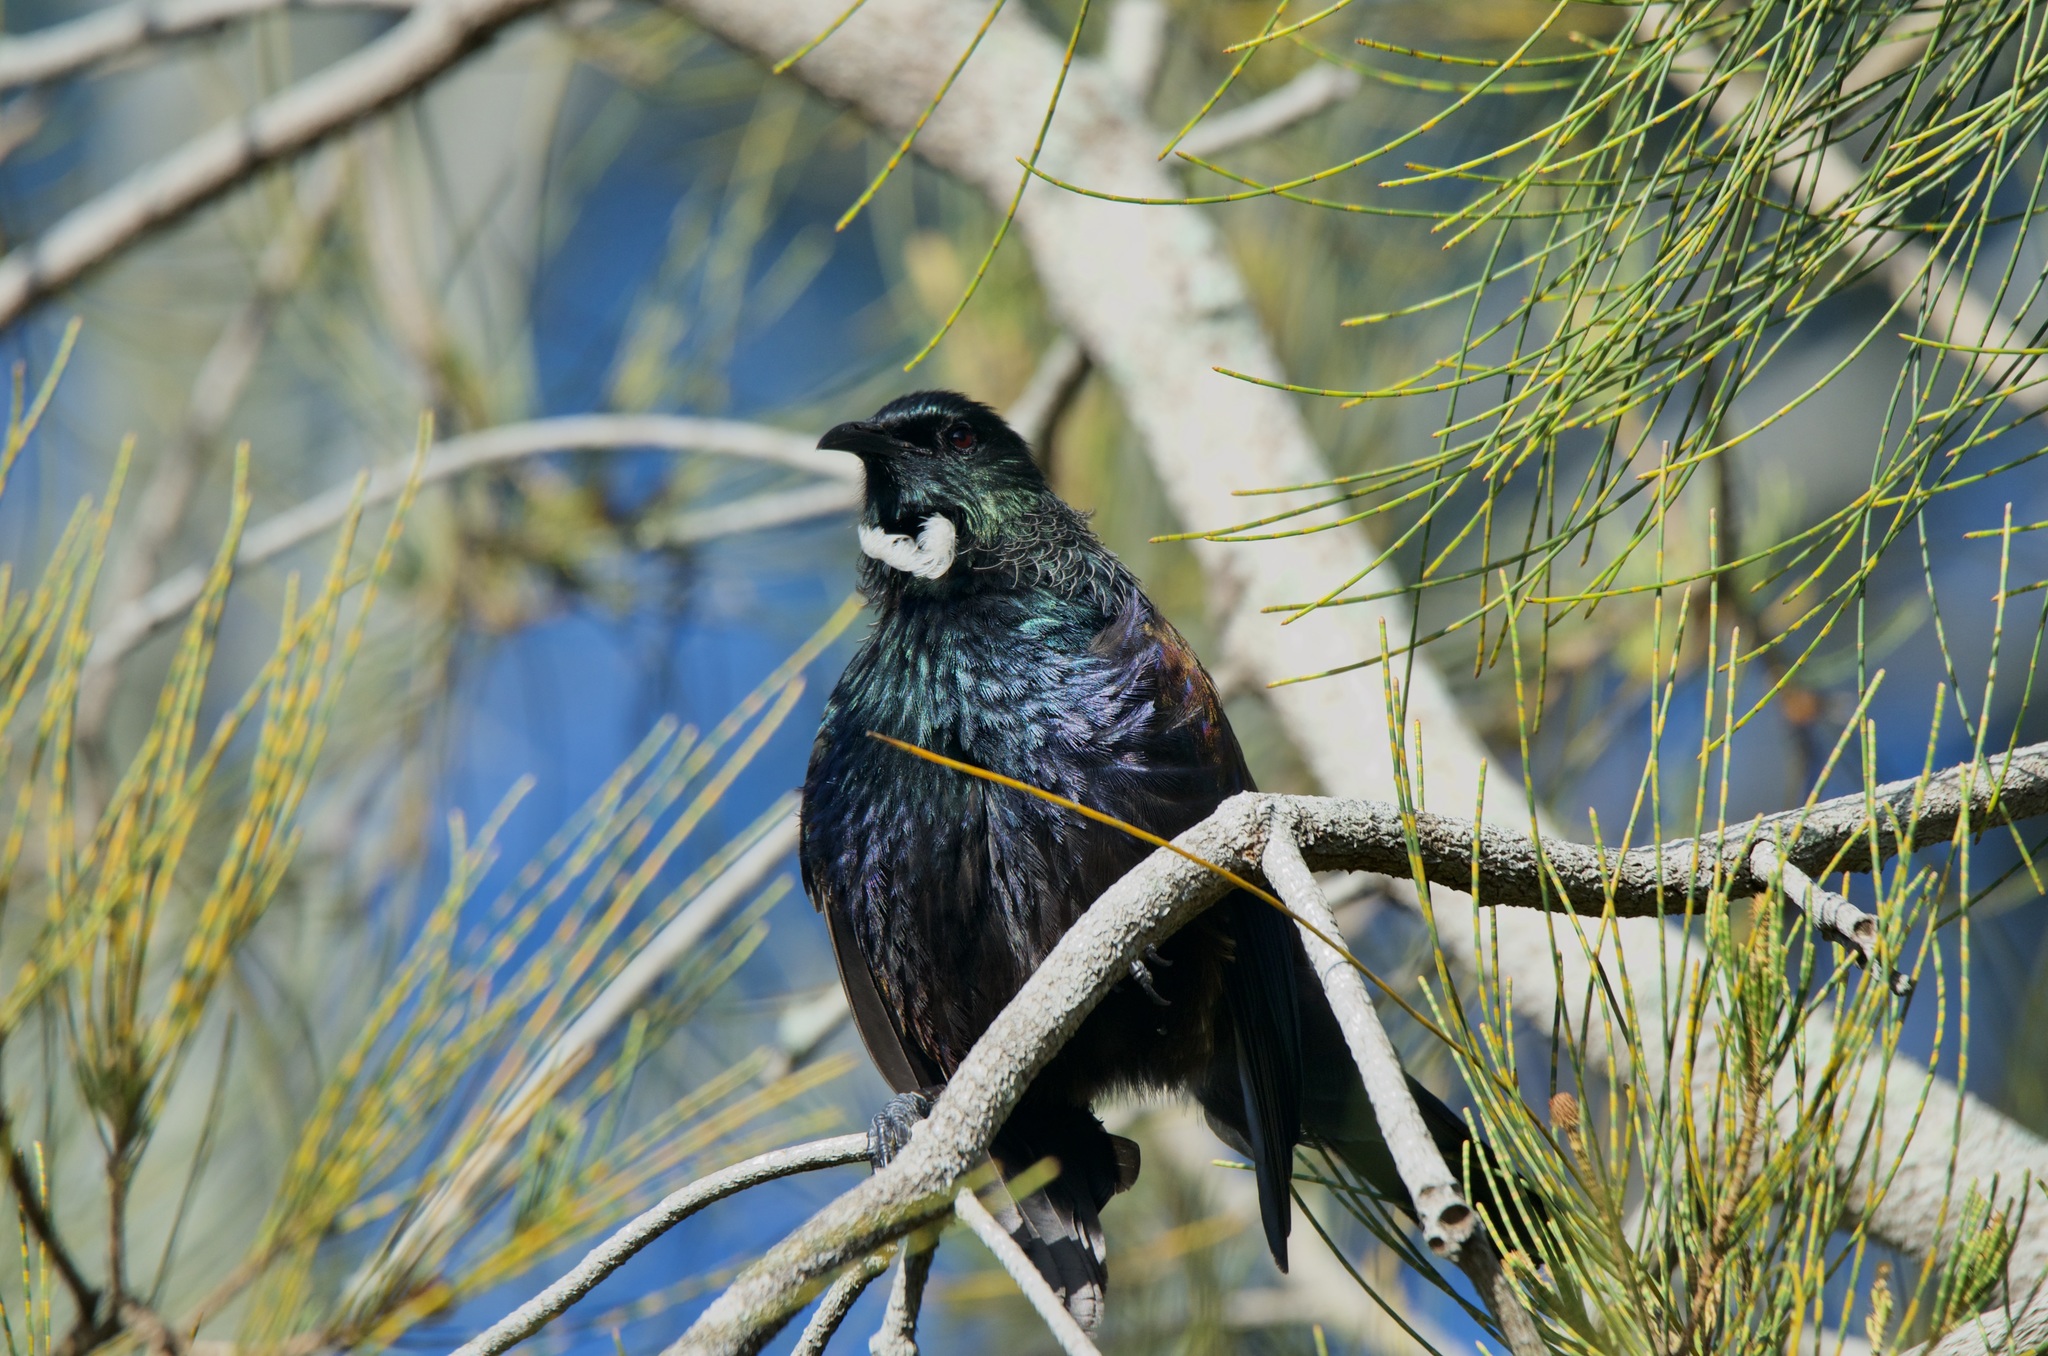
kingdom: Animalia
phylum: Chordata
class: Aves
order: Passeriformes
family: Meliphagidae
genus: Prosthemadera
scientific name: Prosthemadera novaeseelandiae
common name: Tui
